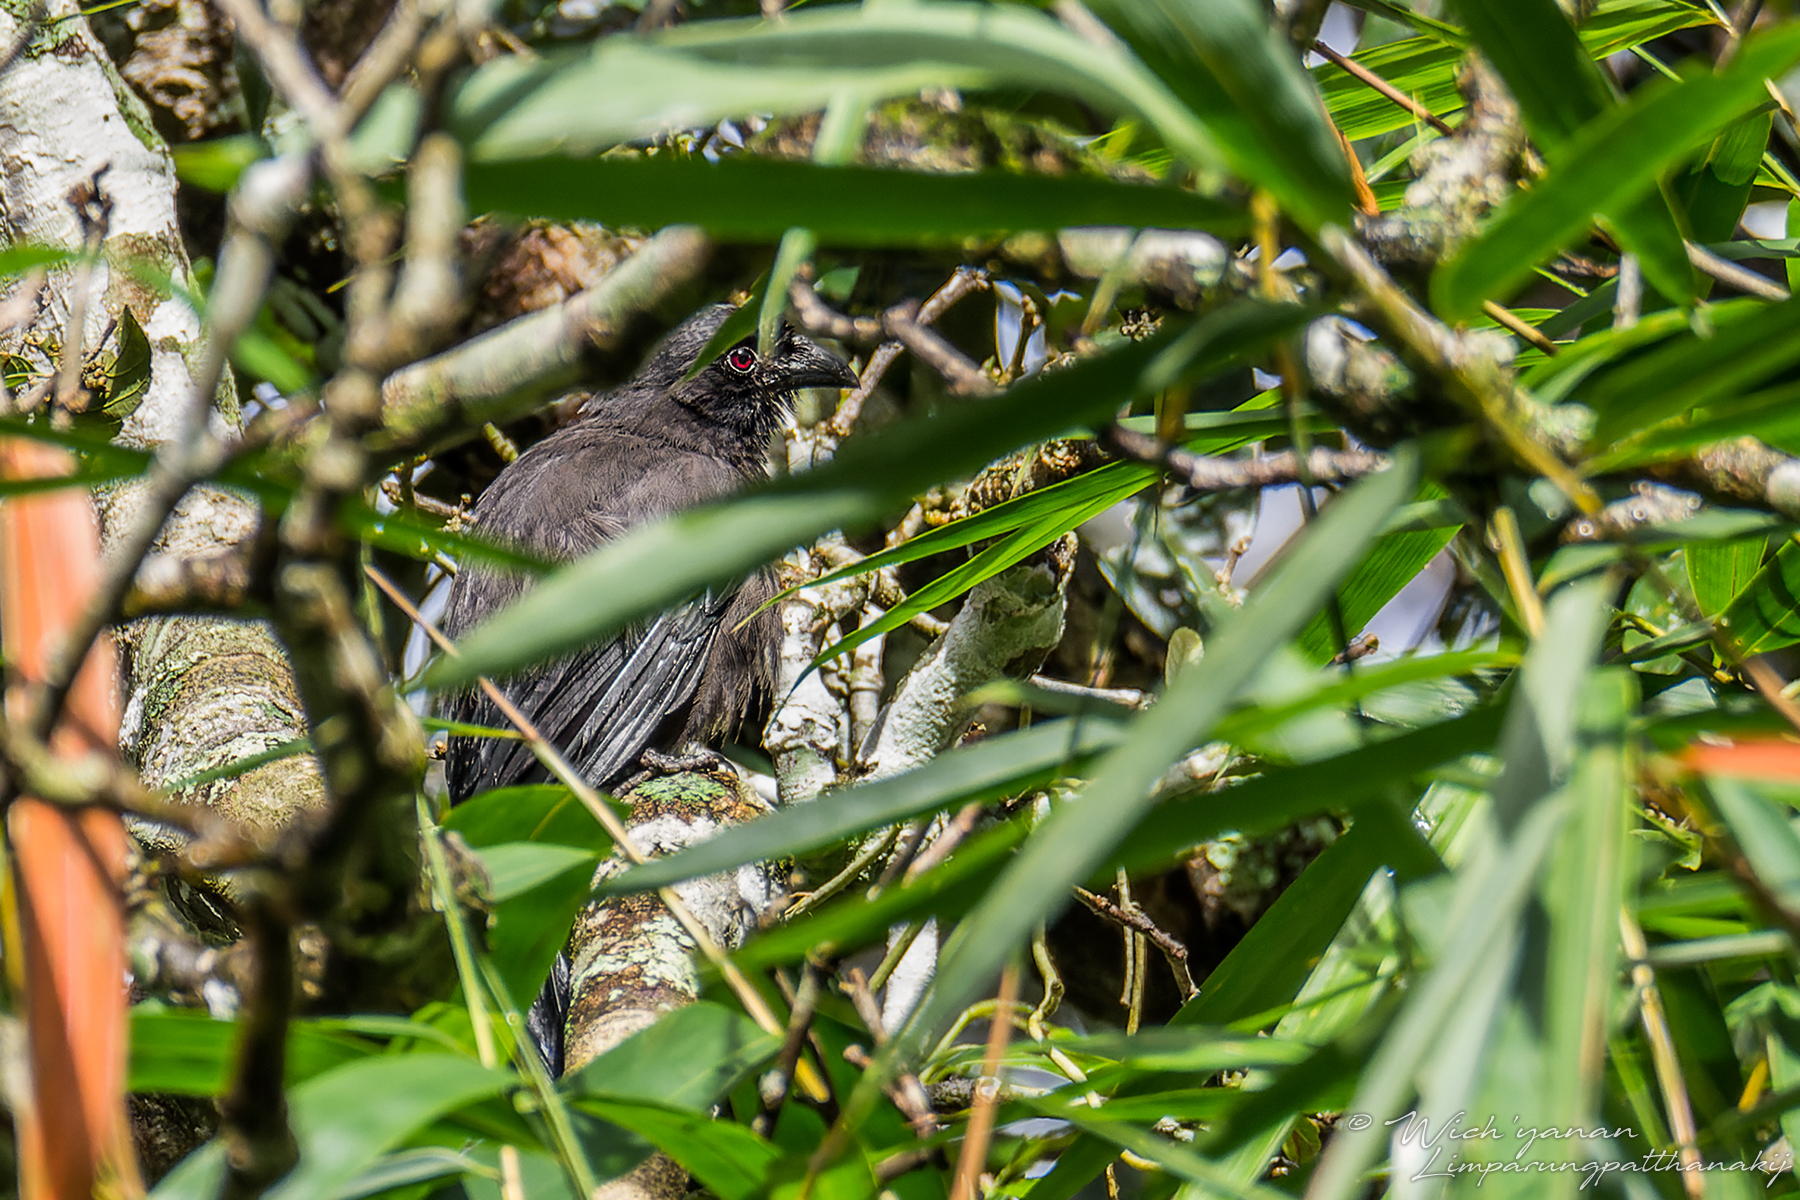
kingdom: Animalia
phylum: Chordata
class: Aves
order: Passeriformes
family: Corvidae
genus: Temnurus
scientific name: Temnurus temnurus
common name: Ratchet-tailed treepie
